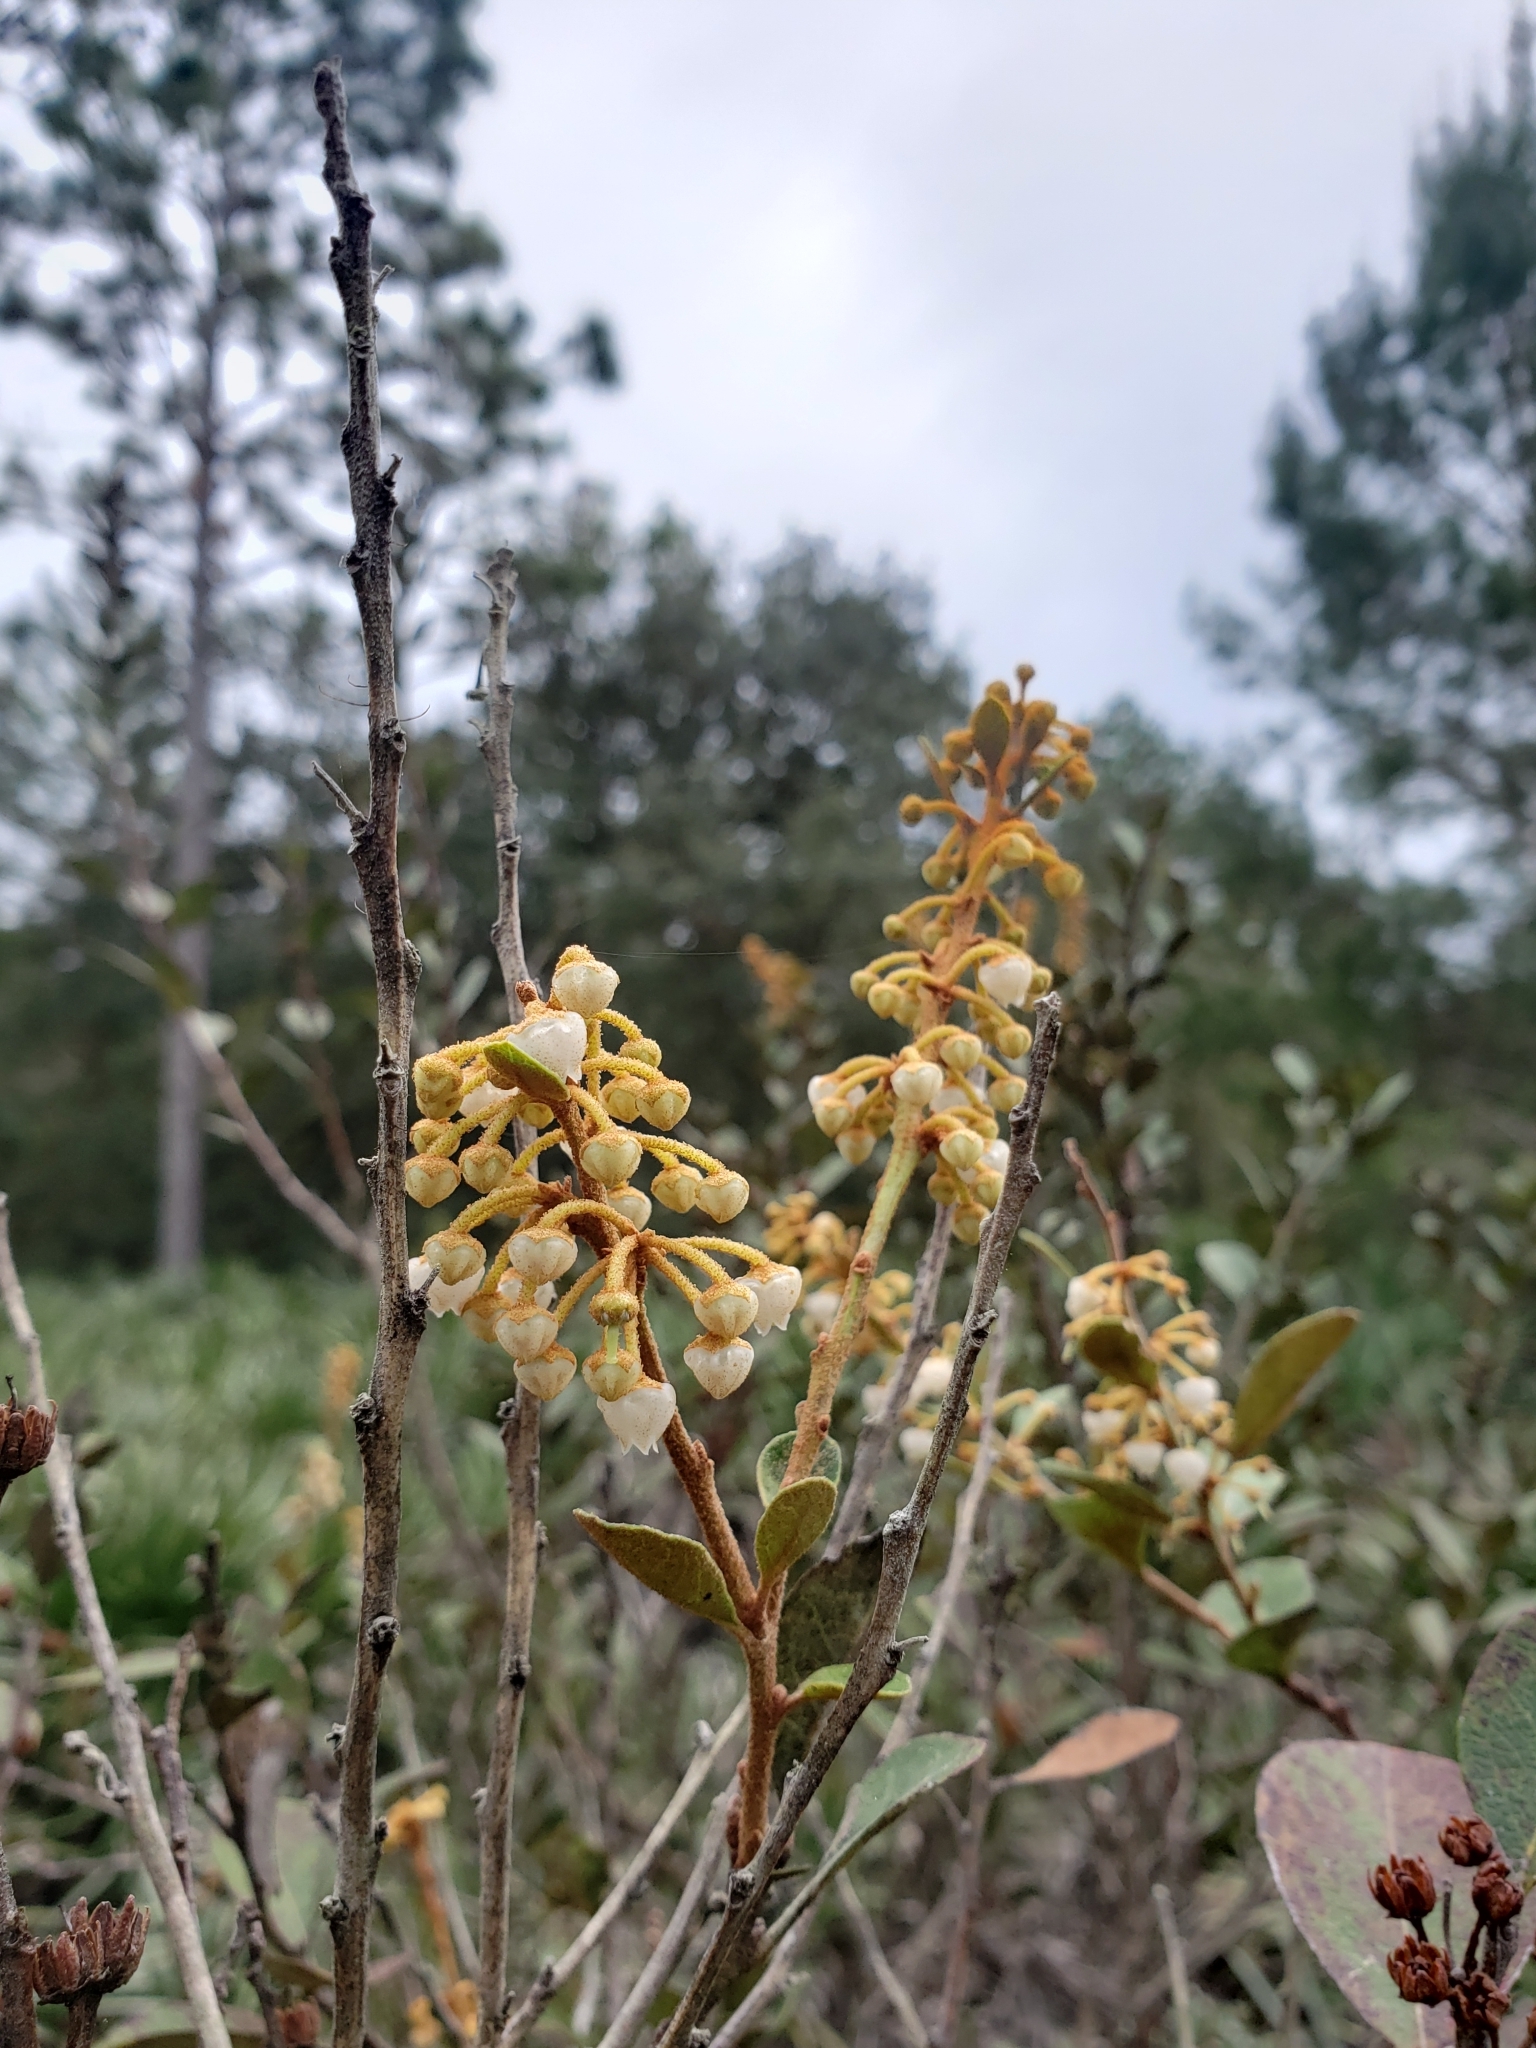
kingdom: Plantae
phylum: Tracheophyta
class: Magnoliopsida
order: Ericales
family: Ericaceae
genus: Lyonia
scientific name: Lyonia fruticosa
